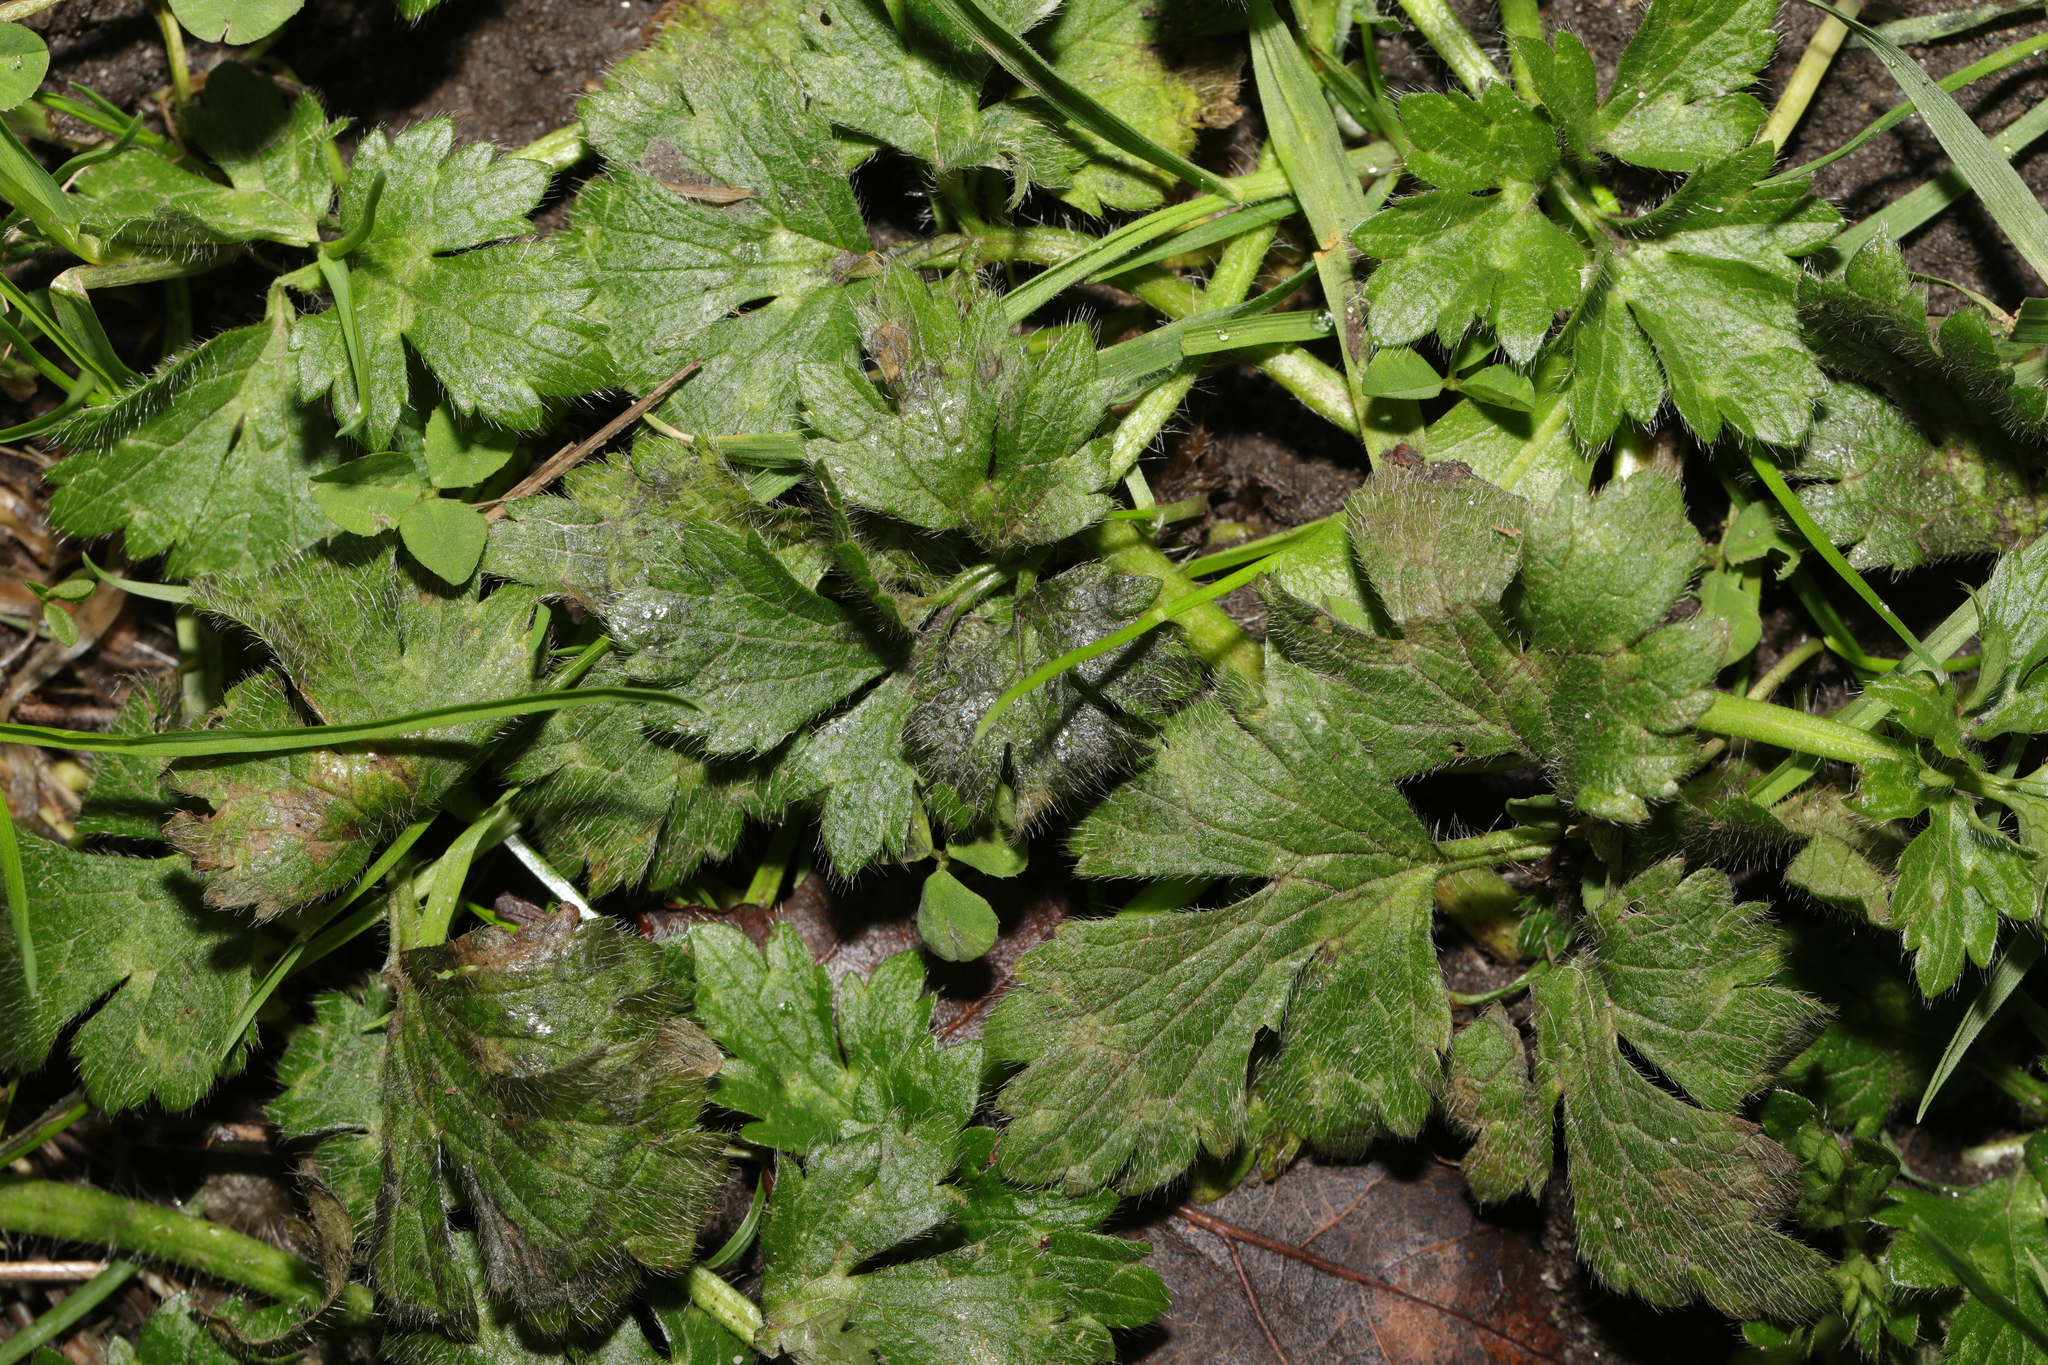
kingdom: Plantae
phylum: Tracheophyta
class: Magnoliopsida
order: Ranunculales
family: Ranunculaceae
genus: Ranunculus
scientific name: Ranunculus repens
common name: Creeping buttercup
